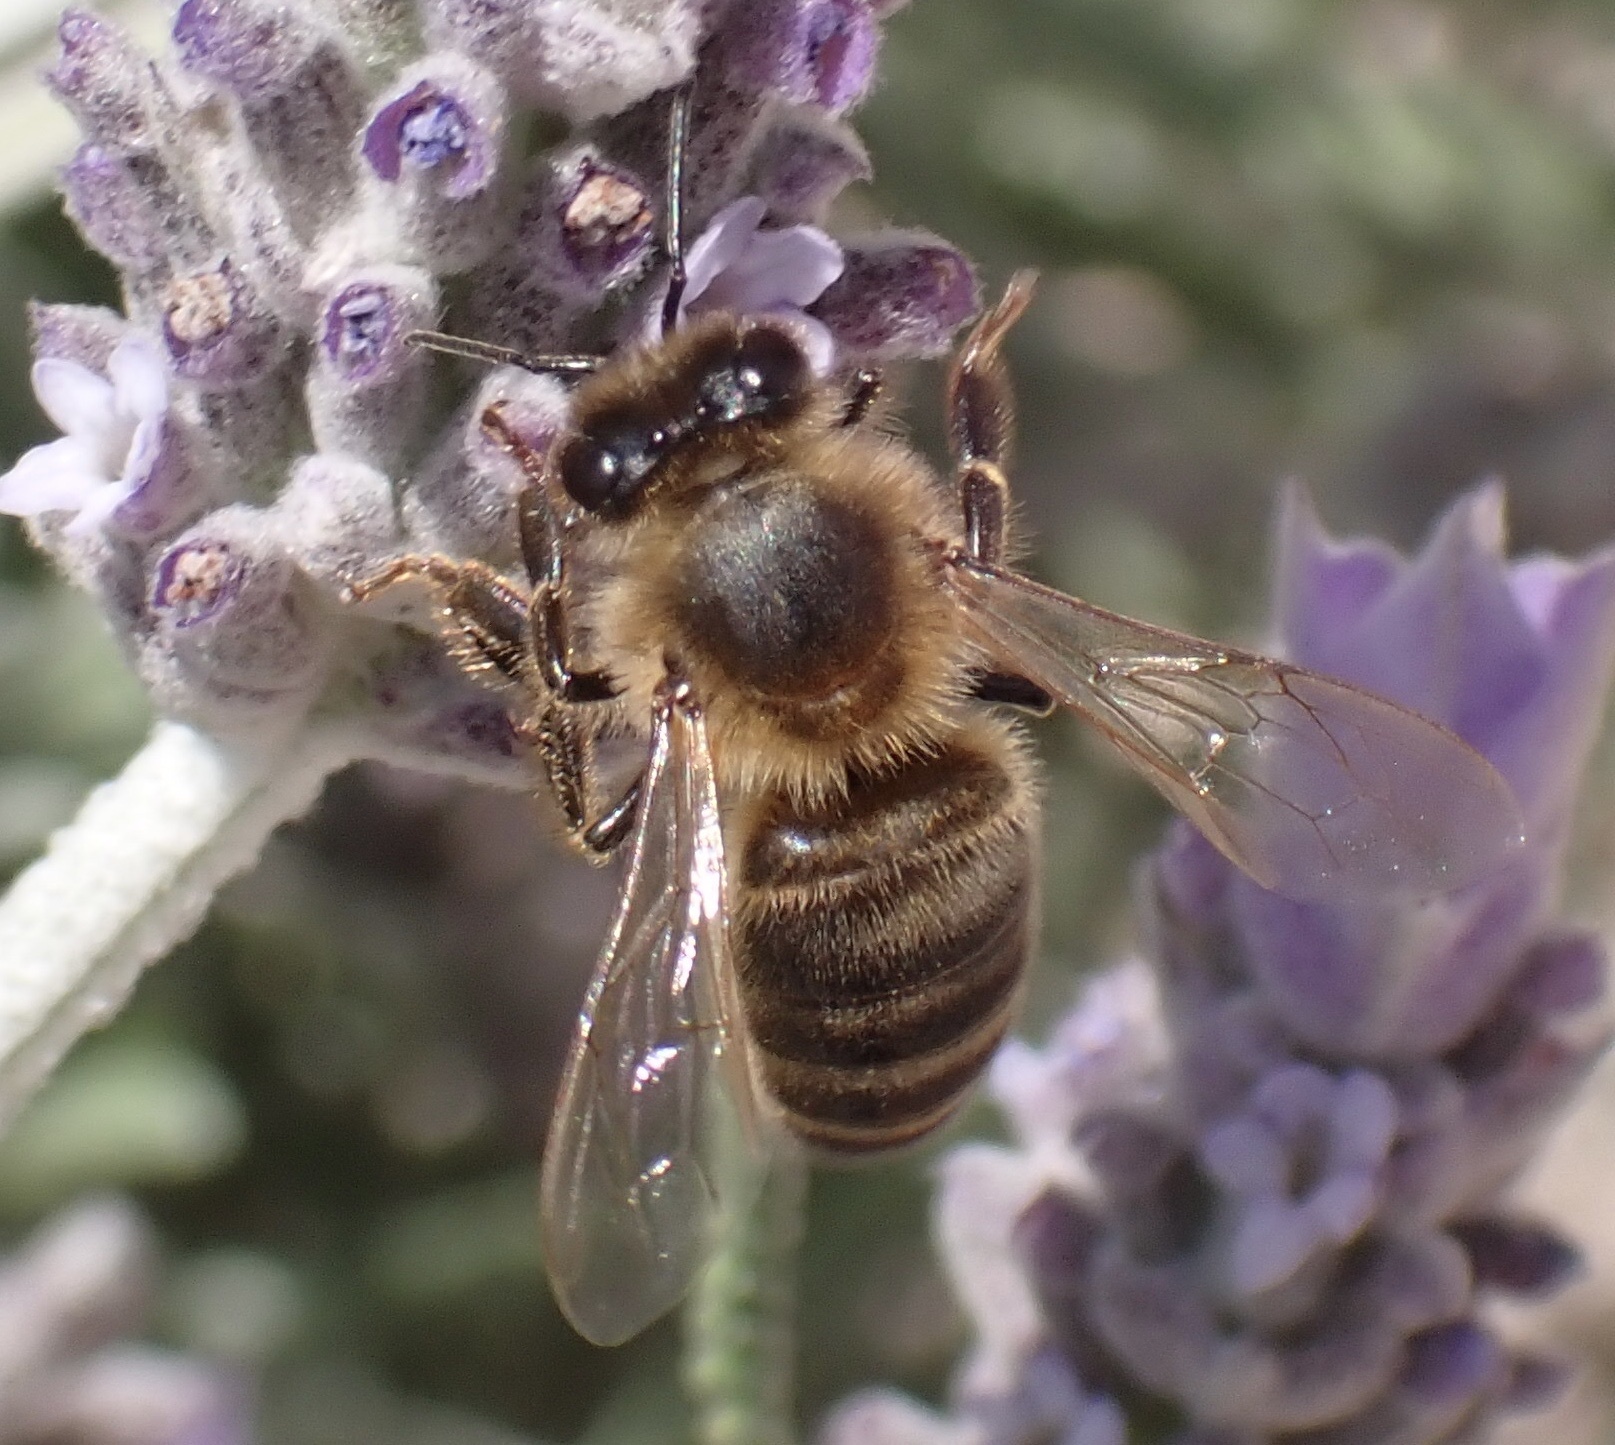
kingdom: Animalia
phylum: Arthropoda
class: Insecta
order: Hymenoptera
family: Apidae
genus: Apis
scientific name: Apis mellifera
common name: Honey bee
